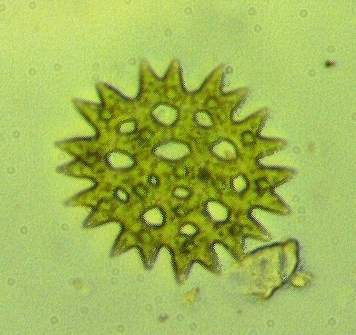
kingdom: Plantae
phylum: Chlorophyta
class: Chlorophyceae
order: Sphaeropleales
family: Hydrodictyaceae
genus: Pediastrum
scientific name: Pediastrum duplex
